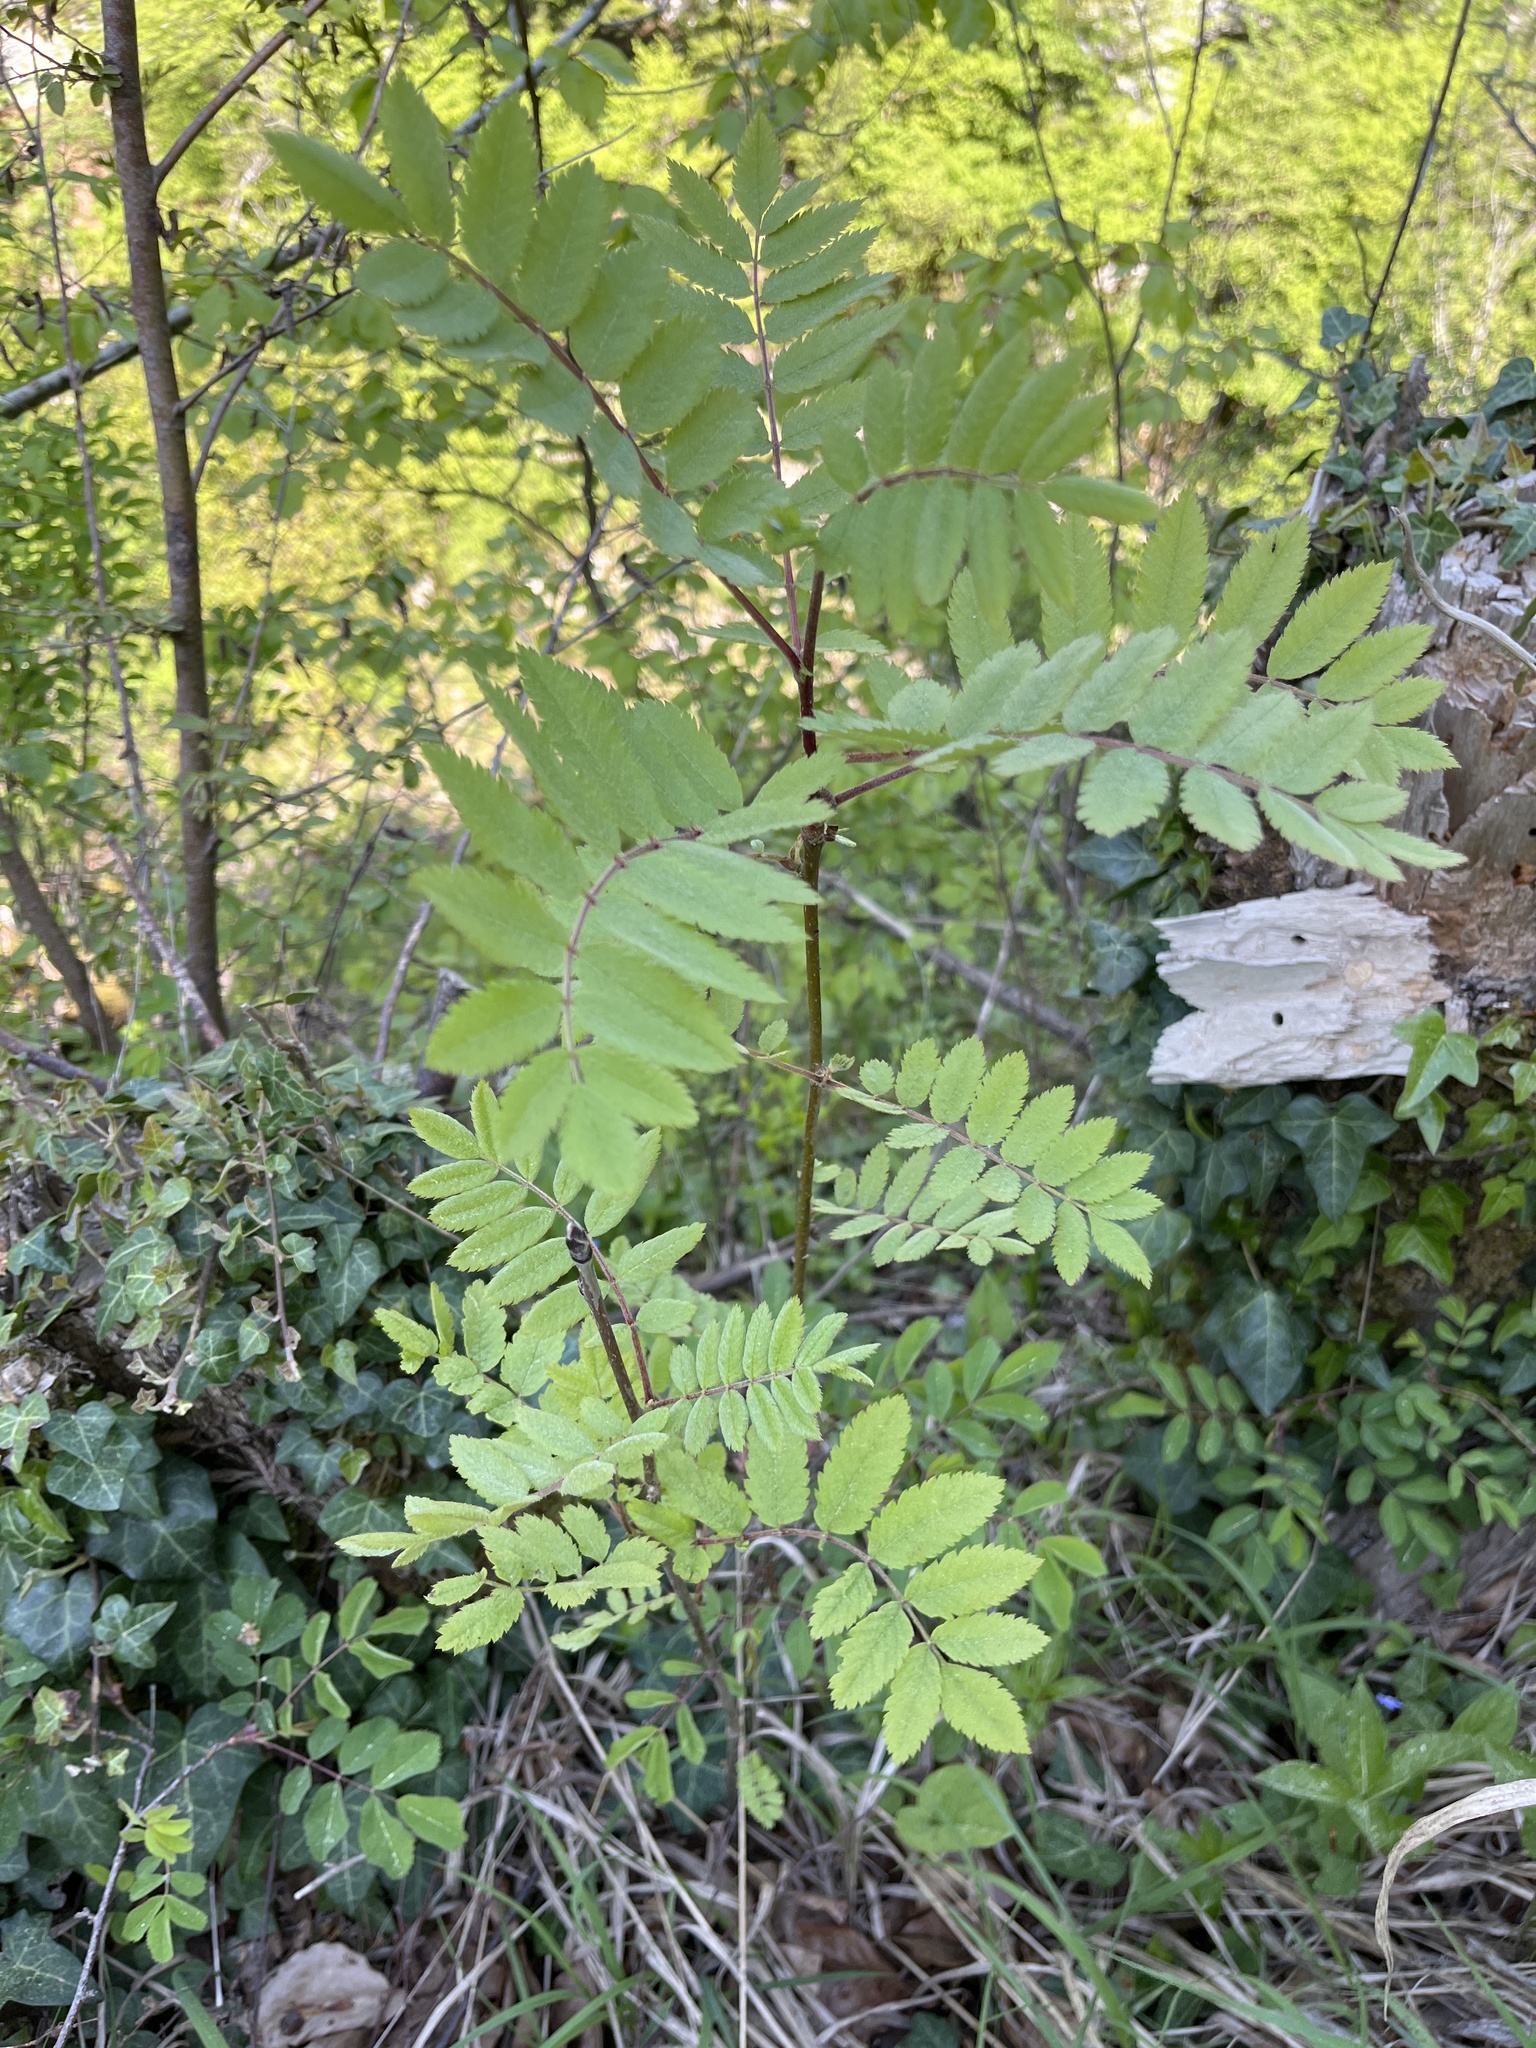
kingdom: Plantae
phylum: Tracheophyta
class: Magnoliopsida
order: Rosales
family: Rosaceae
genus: Sorbus
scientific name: Sorbus aucuparia
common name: Rowan
